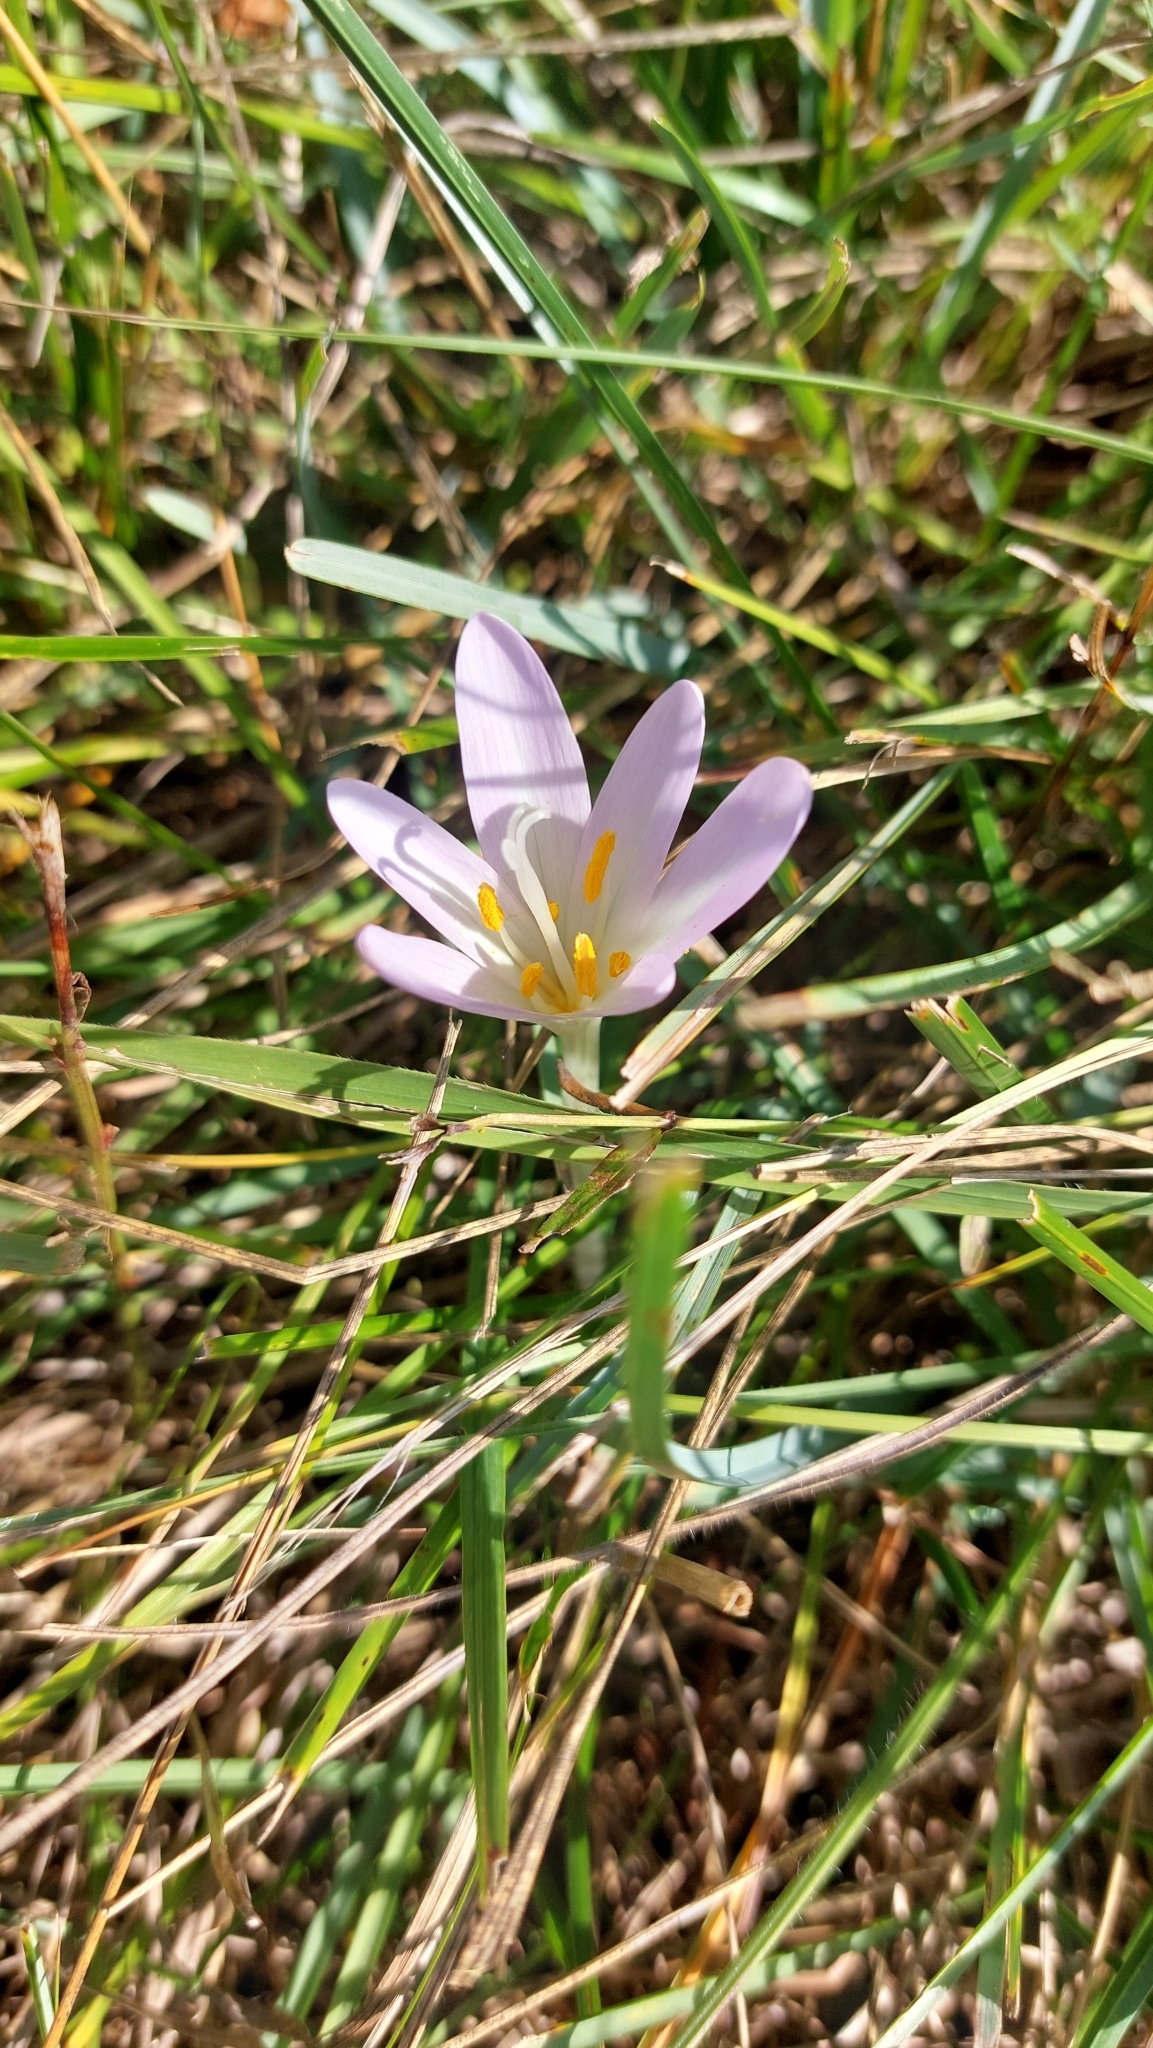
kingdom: Plantae
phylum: Tracheophyta
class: Liliopsida
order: Liliales
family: Colchicaceae
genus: Colchicum
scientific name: Colchicum autumnale
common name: Autumn crocus
